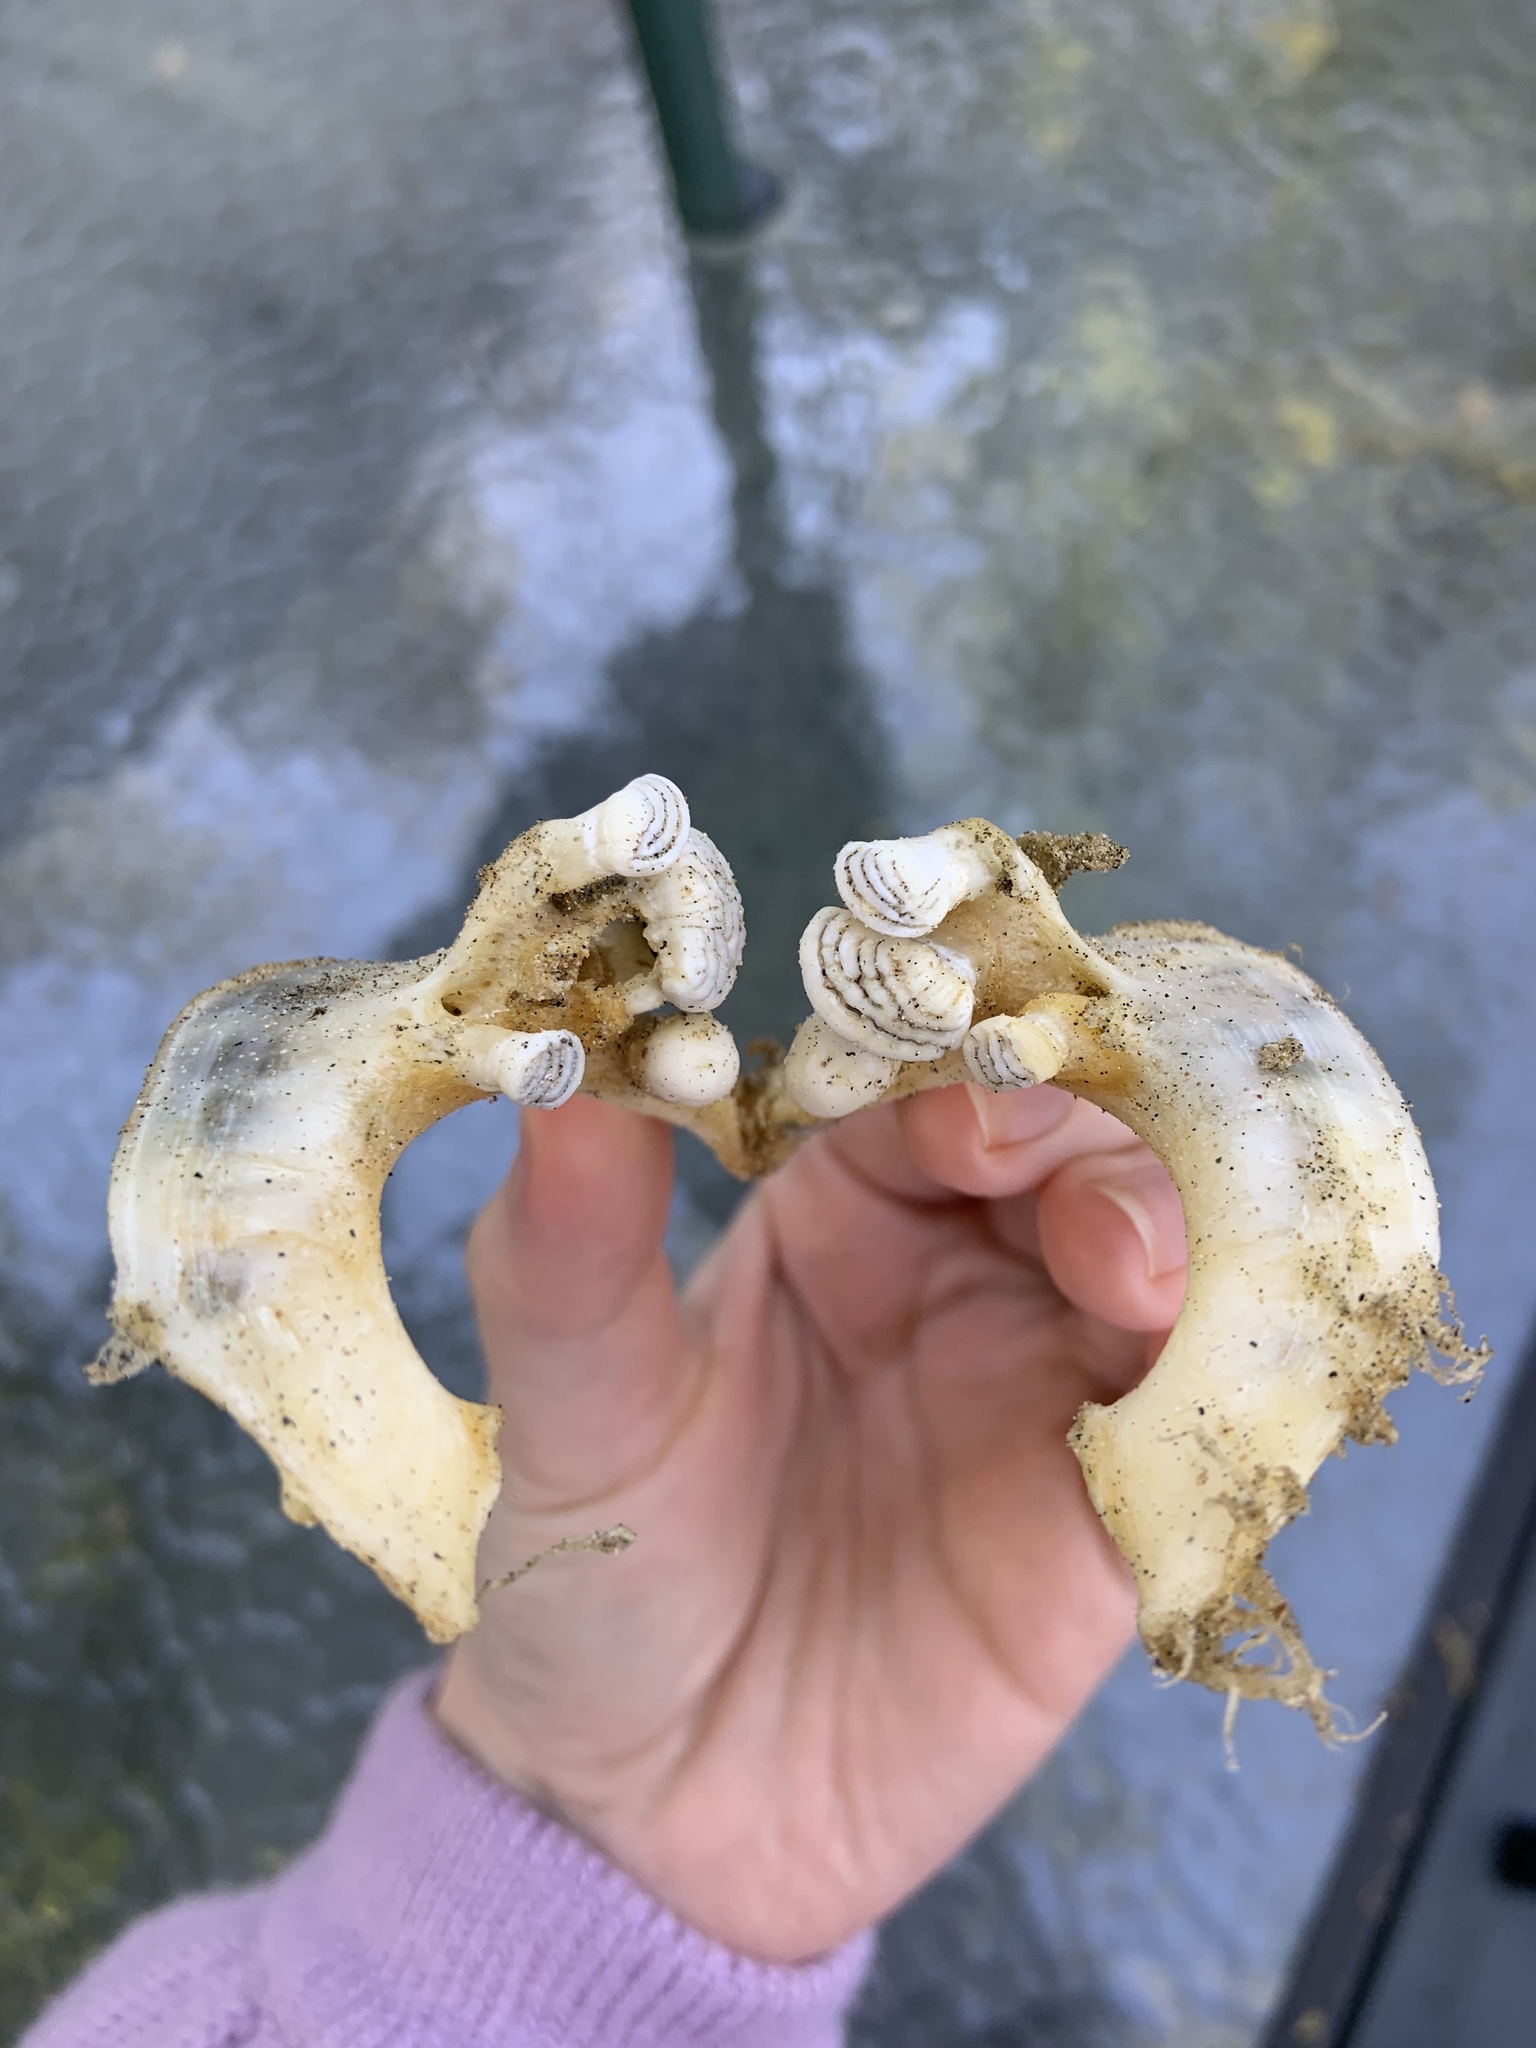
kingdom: Animalia
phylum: Chordata
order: Cypriniformes
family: Cyprinidae
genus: Cyprinus
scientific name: Cyprinus carpio
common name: Common carp
